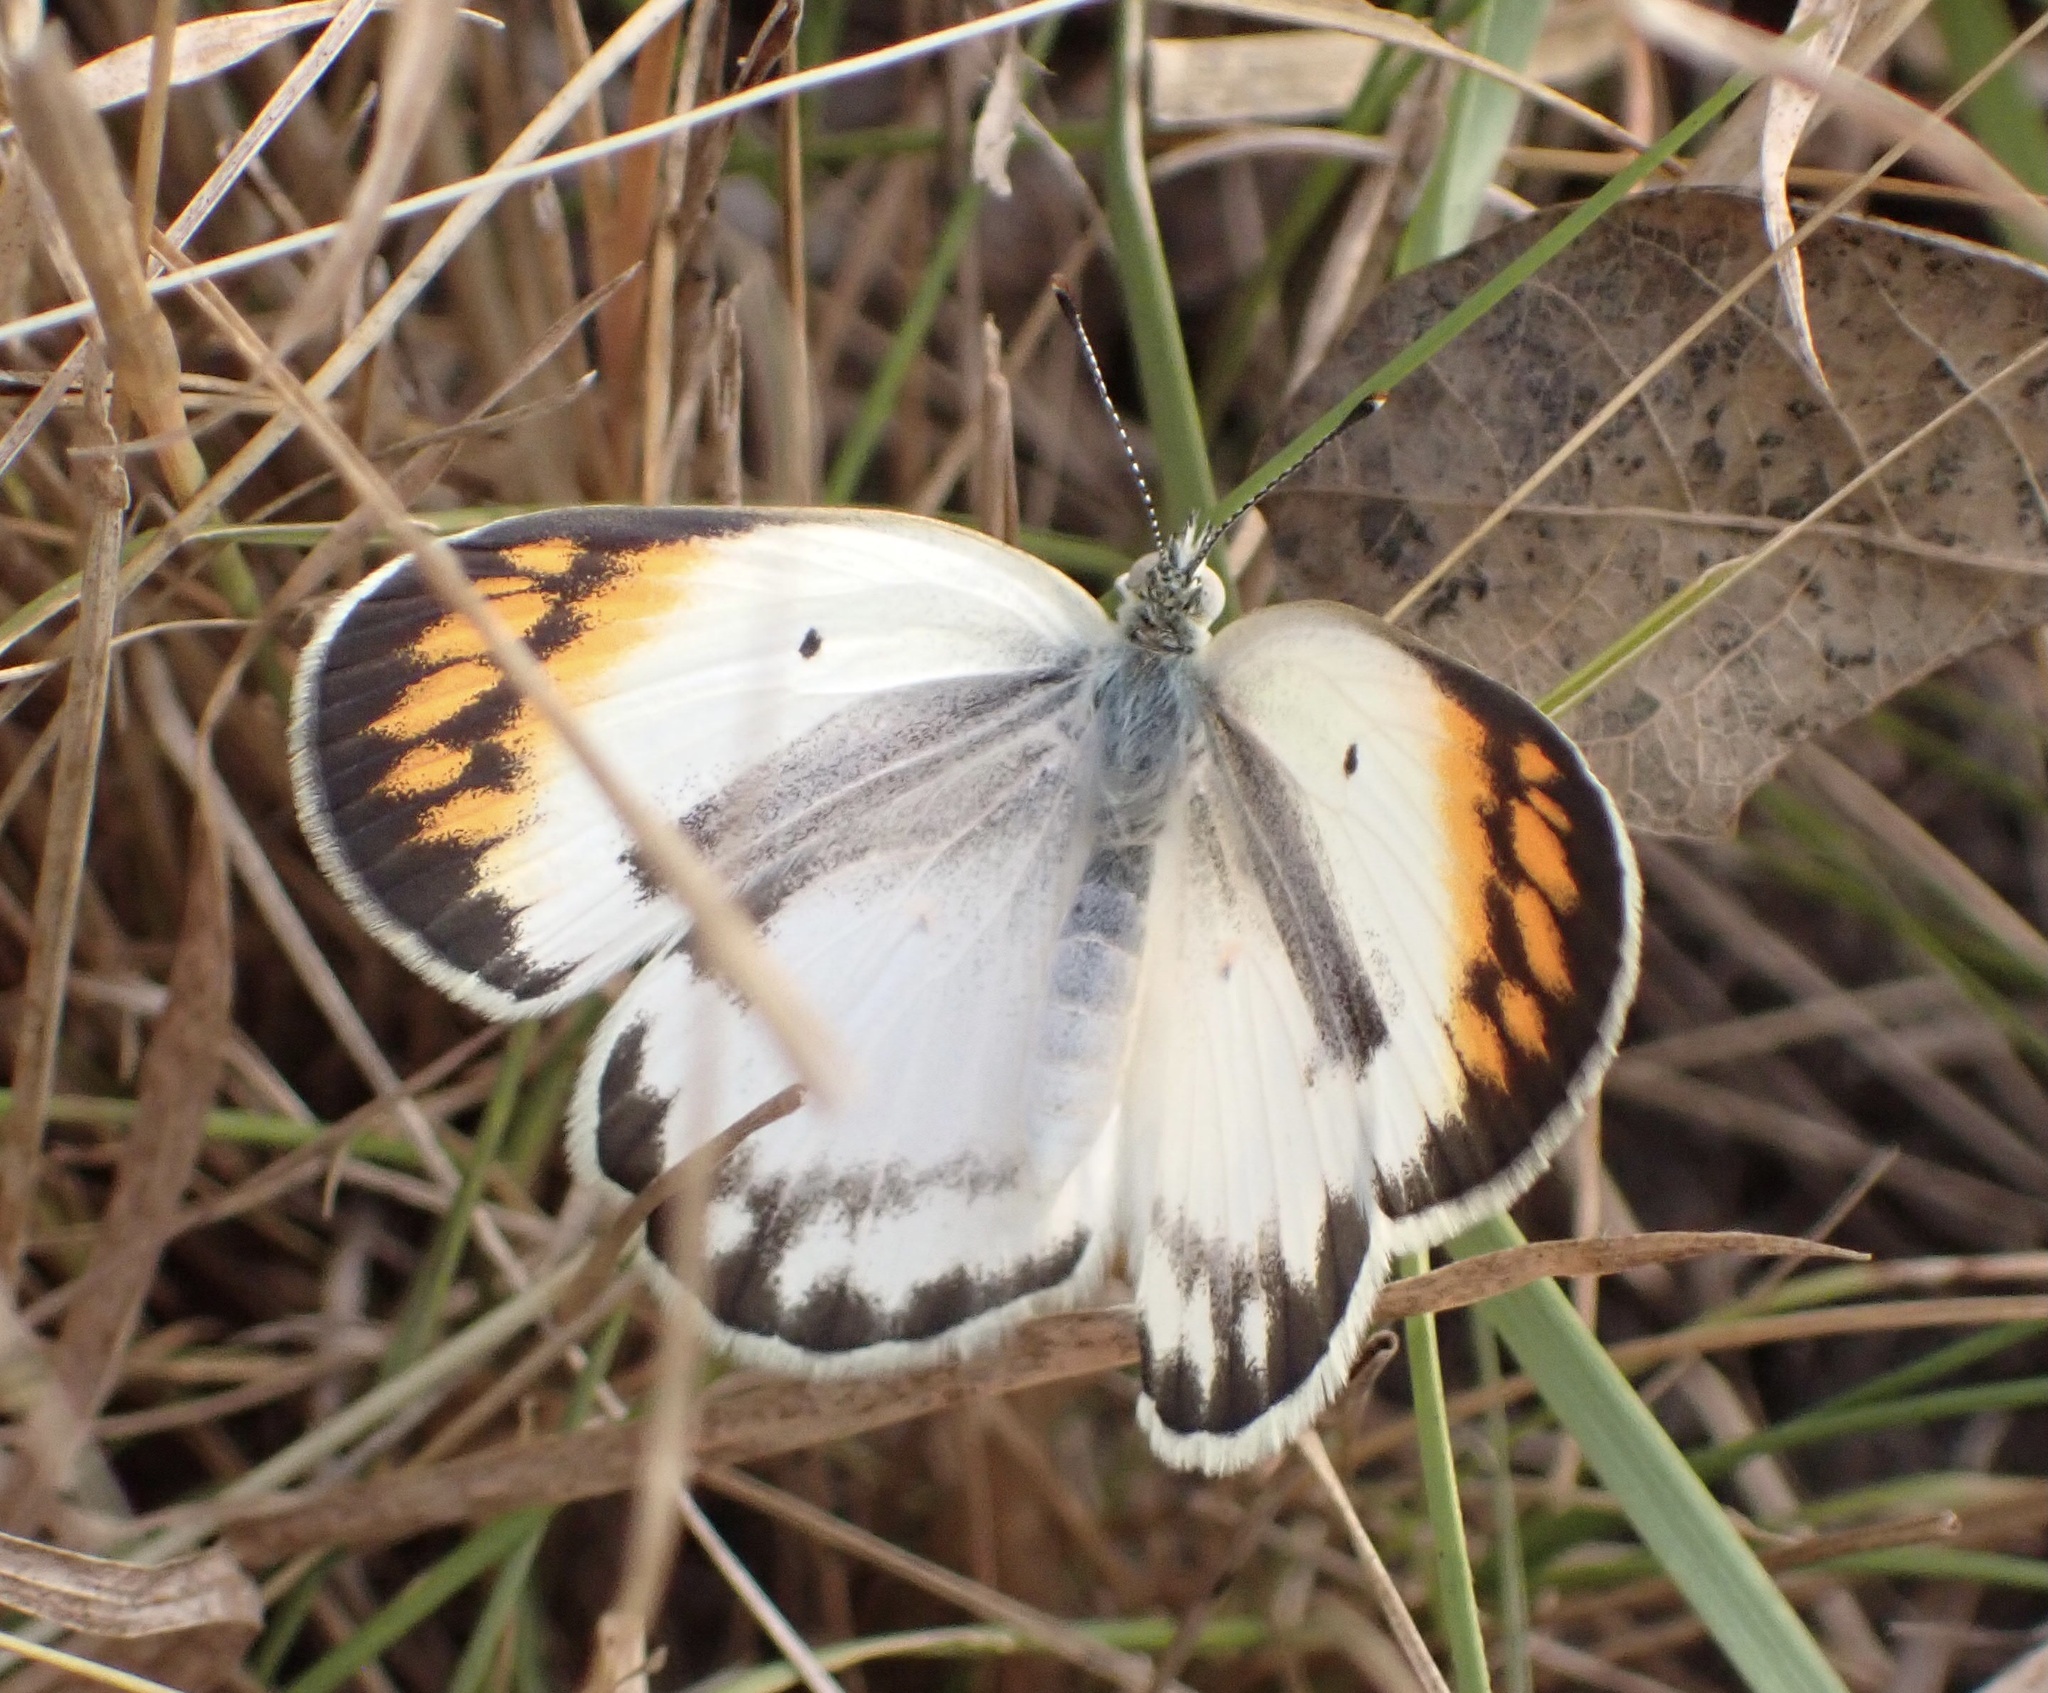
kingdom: Animalia
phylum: Arthropoda
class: Insecta
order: Lepidoptera
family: Pieridae
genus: Colotis
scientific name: Colotis antevippe
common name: Large orange tip
